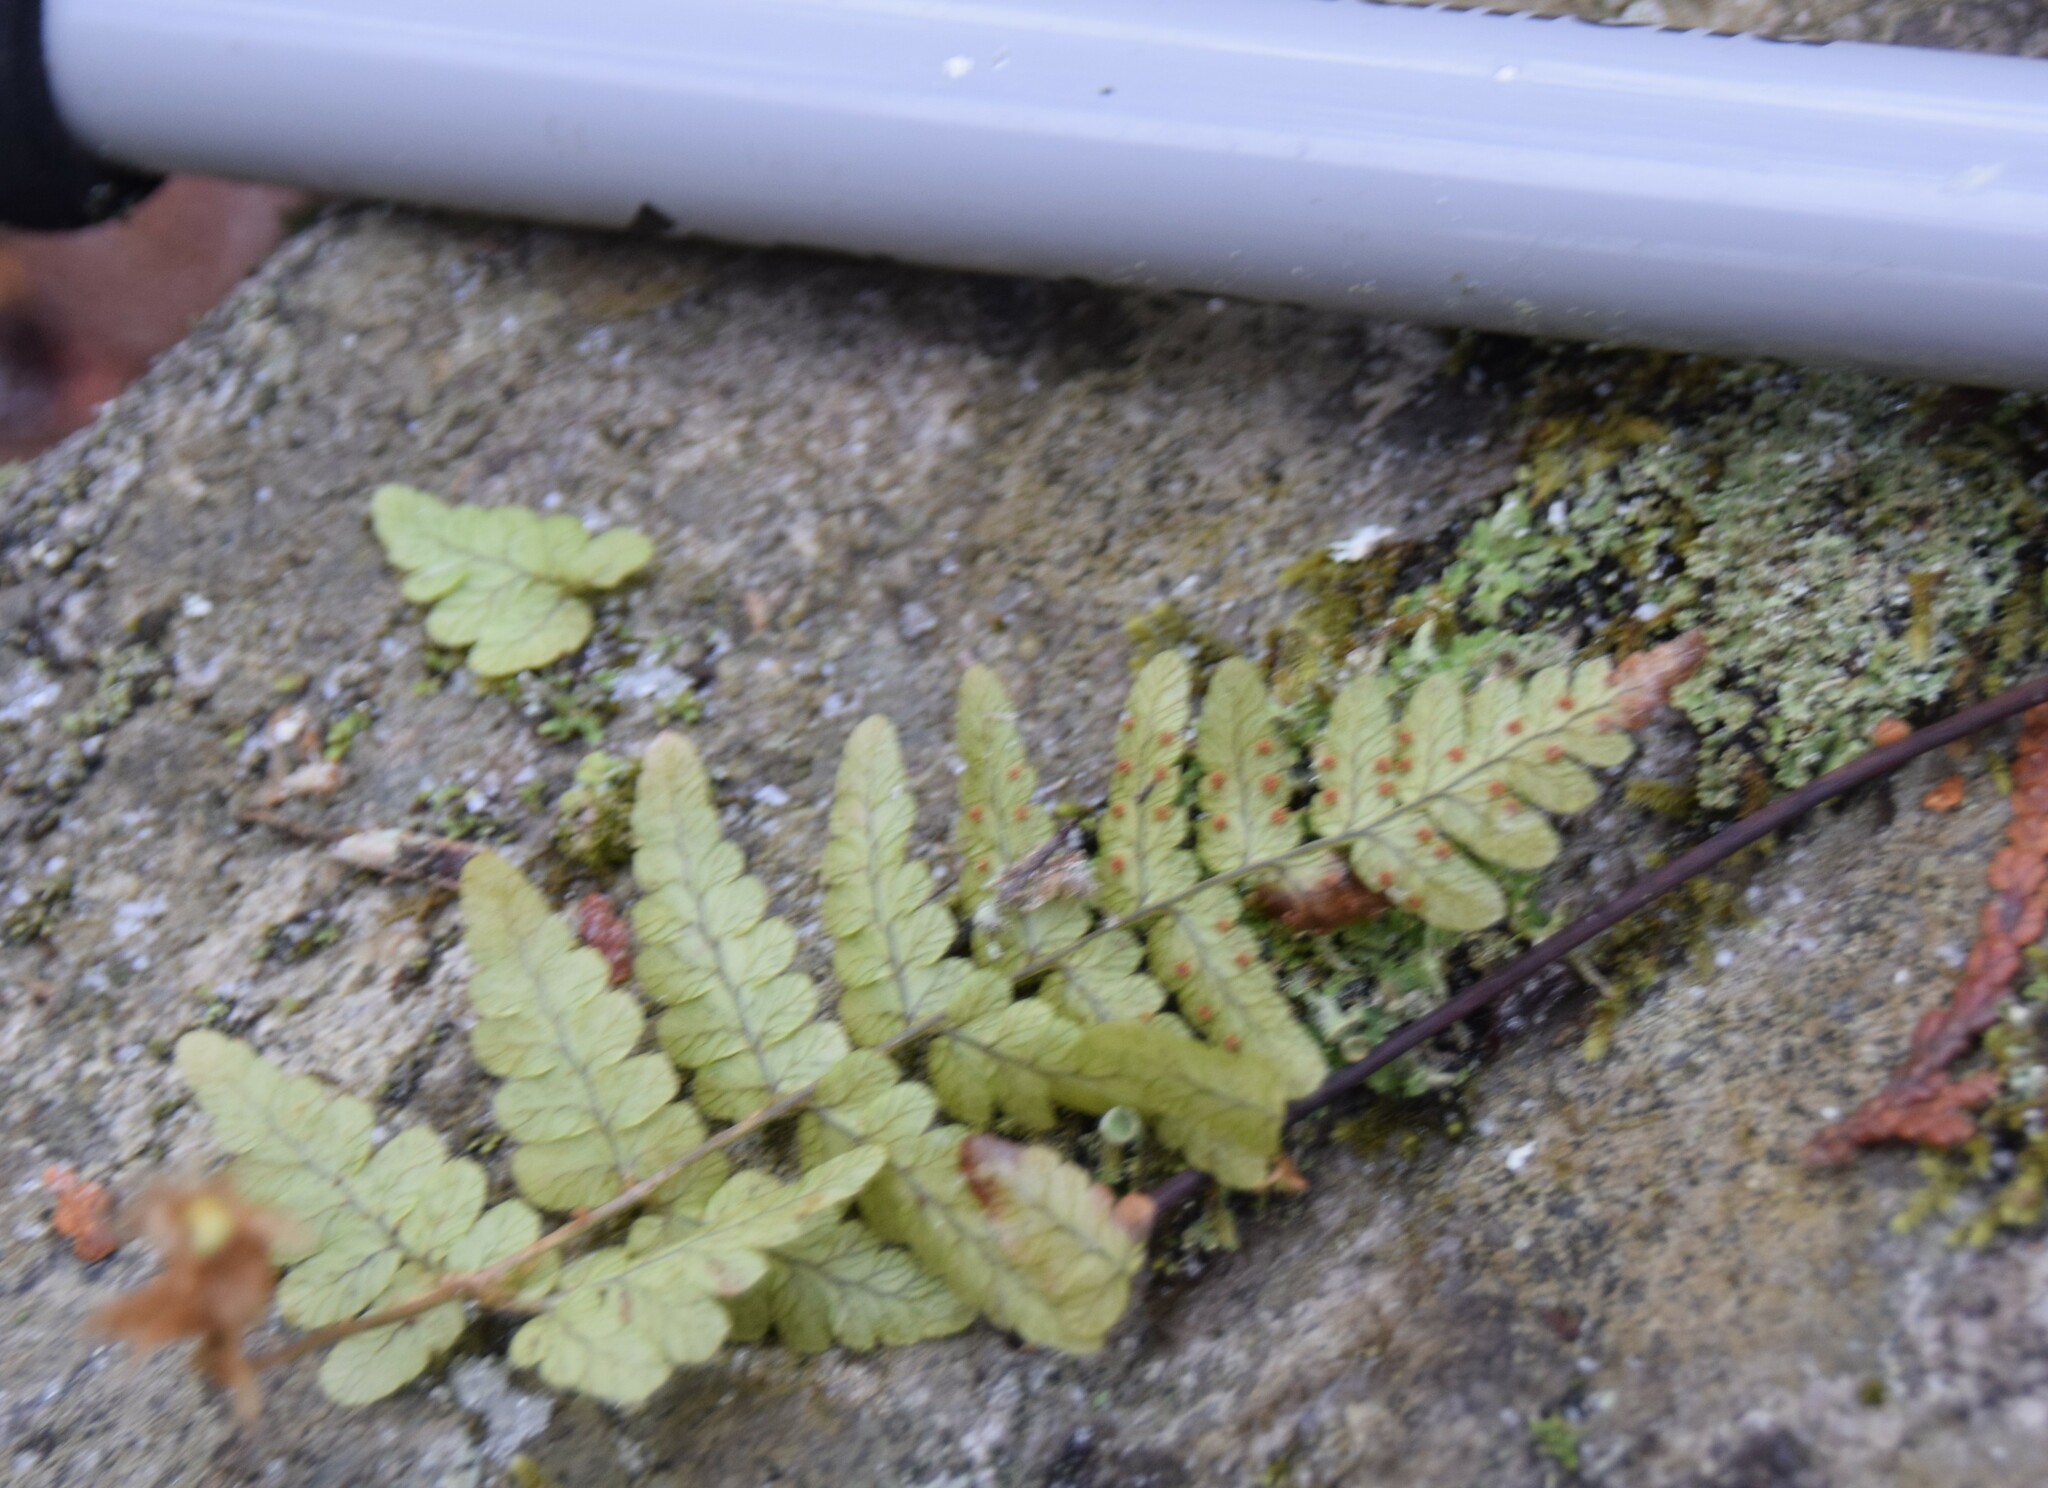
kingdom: Plantae
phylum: Tracheophyta
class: Polypodiopsida
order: Polypodiales
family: Dryopteridaceae
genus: Dryopteris
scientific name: Dryopteris marginalis
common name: Marginal wood fern
